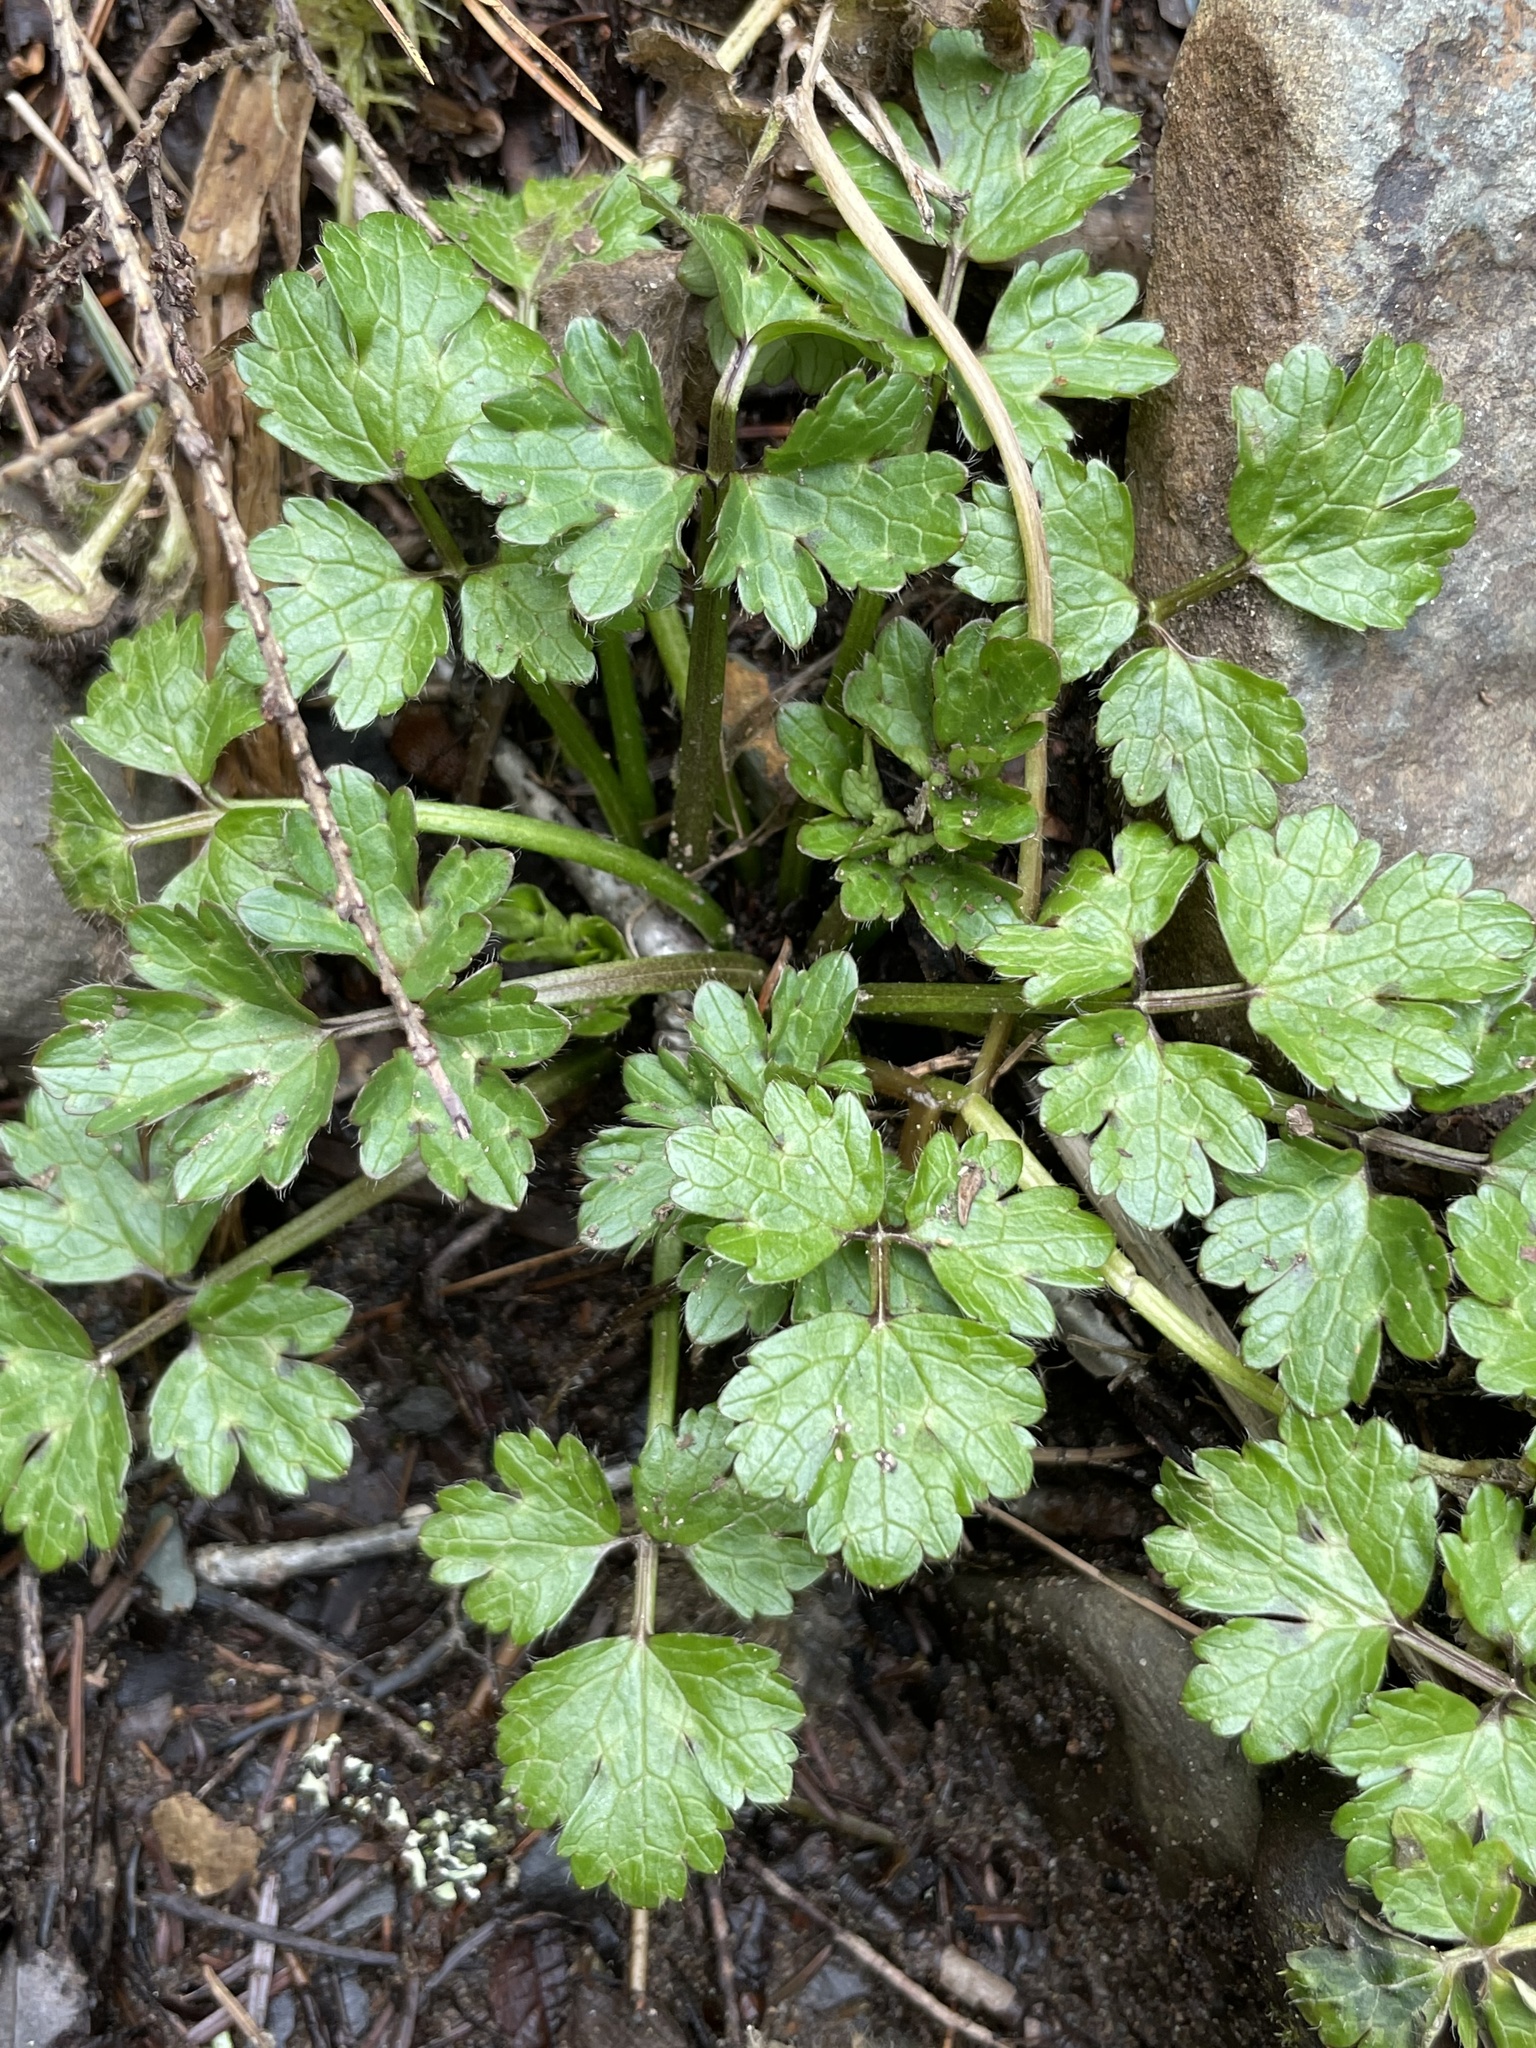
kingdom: Plantae
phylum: Tracheophyta
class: Magnoliopsida
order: Ranunculales
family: Ranunculaceae
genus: Ranunculus
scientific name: Ranunculus repens
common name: Creeping buttercup
